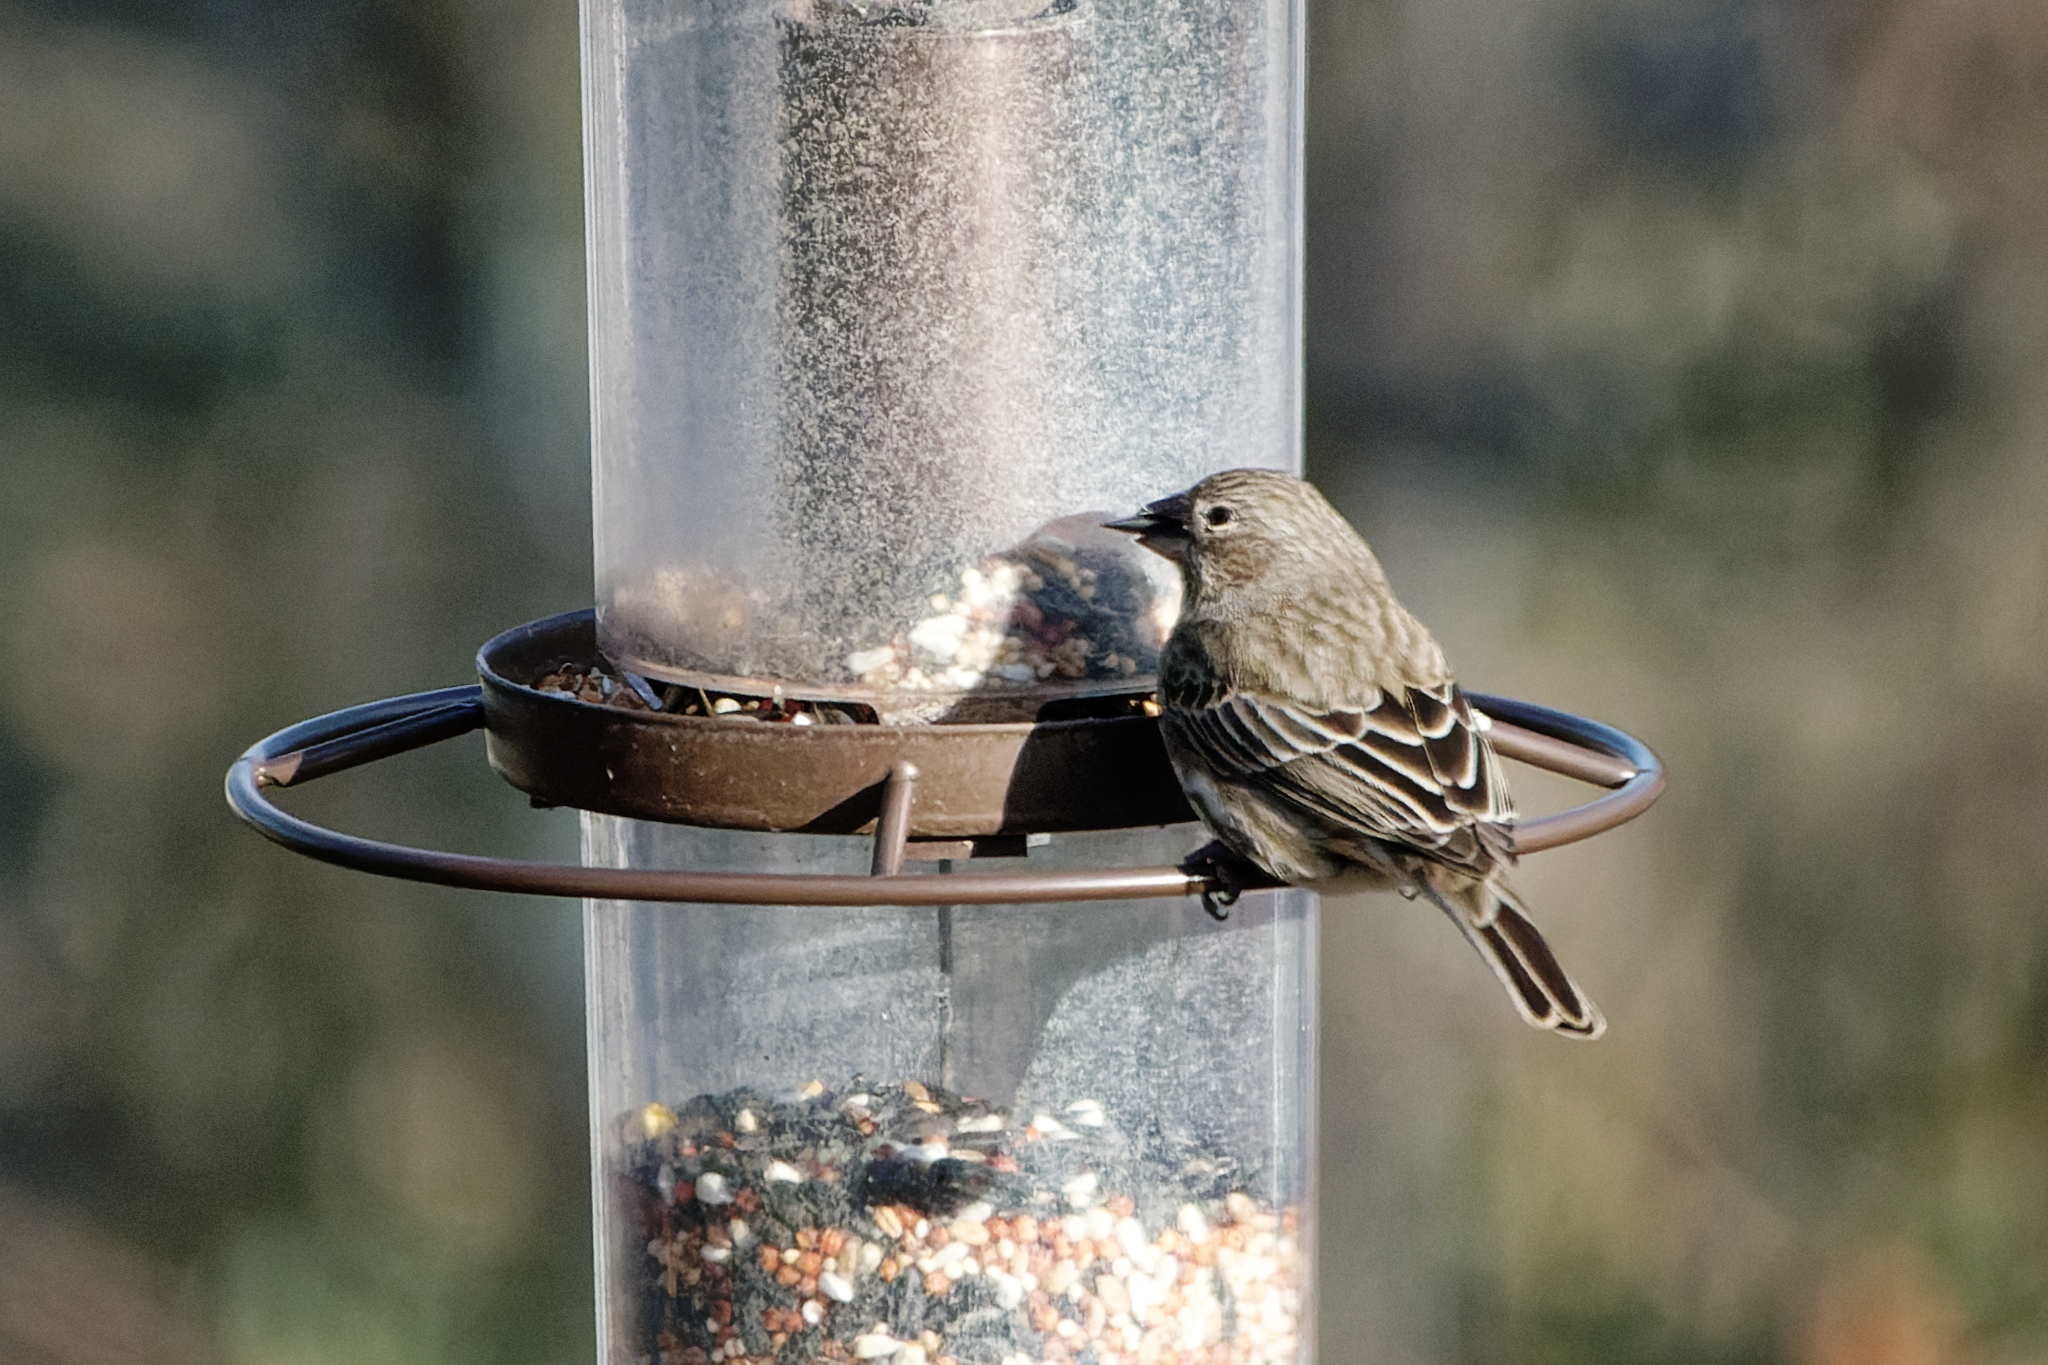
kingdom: Animalia
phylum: Chordata
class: Aves
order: Passeriformes
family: Fringillidae
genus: Haemorhous
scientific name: Haemorhous mexicanus
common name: House finch
